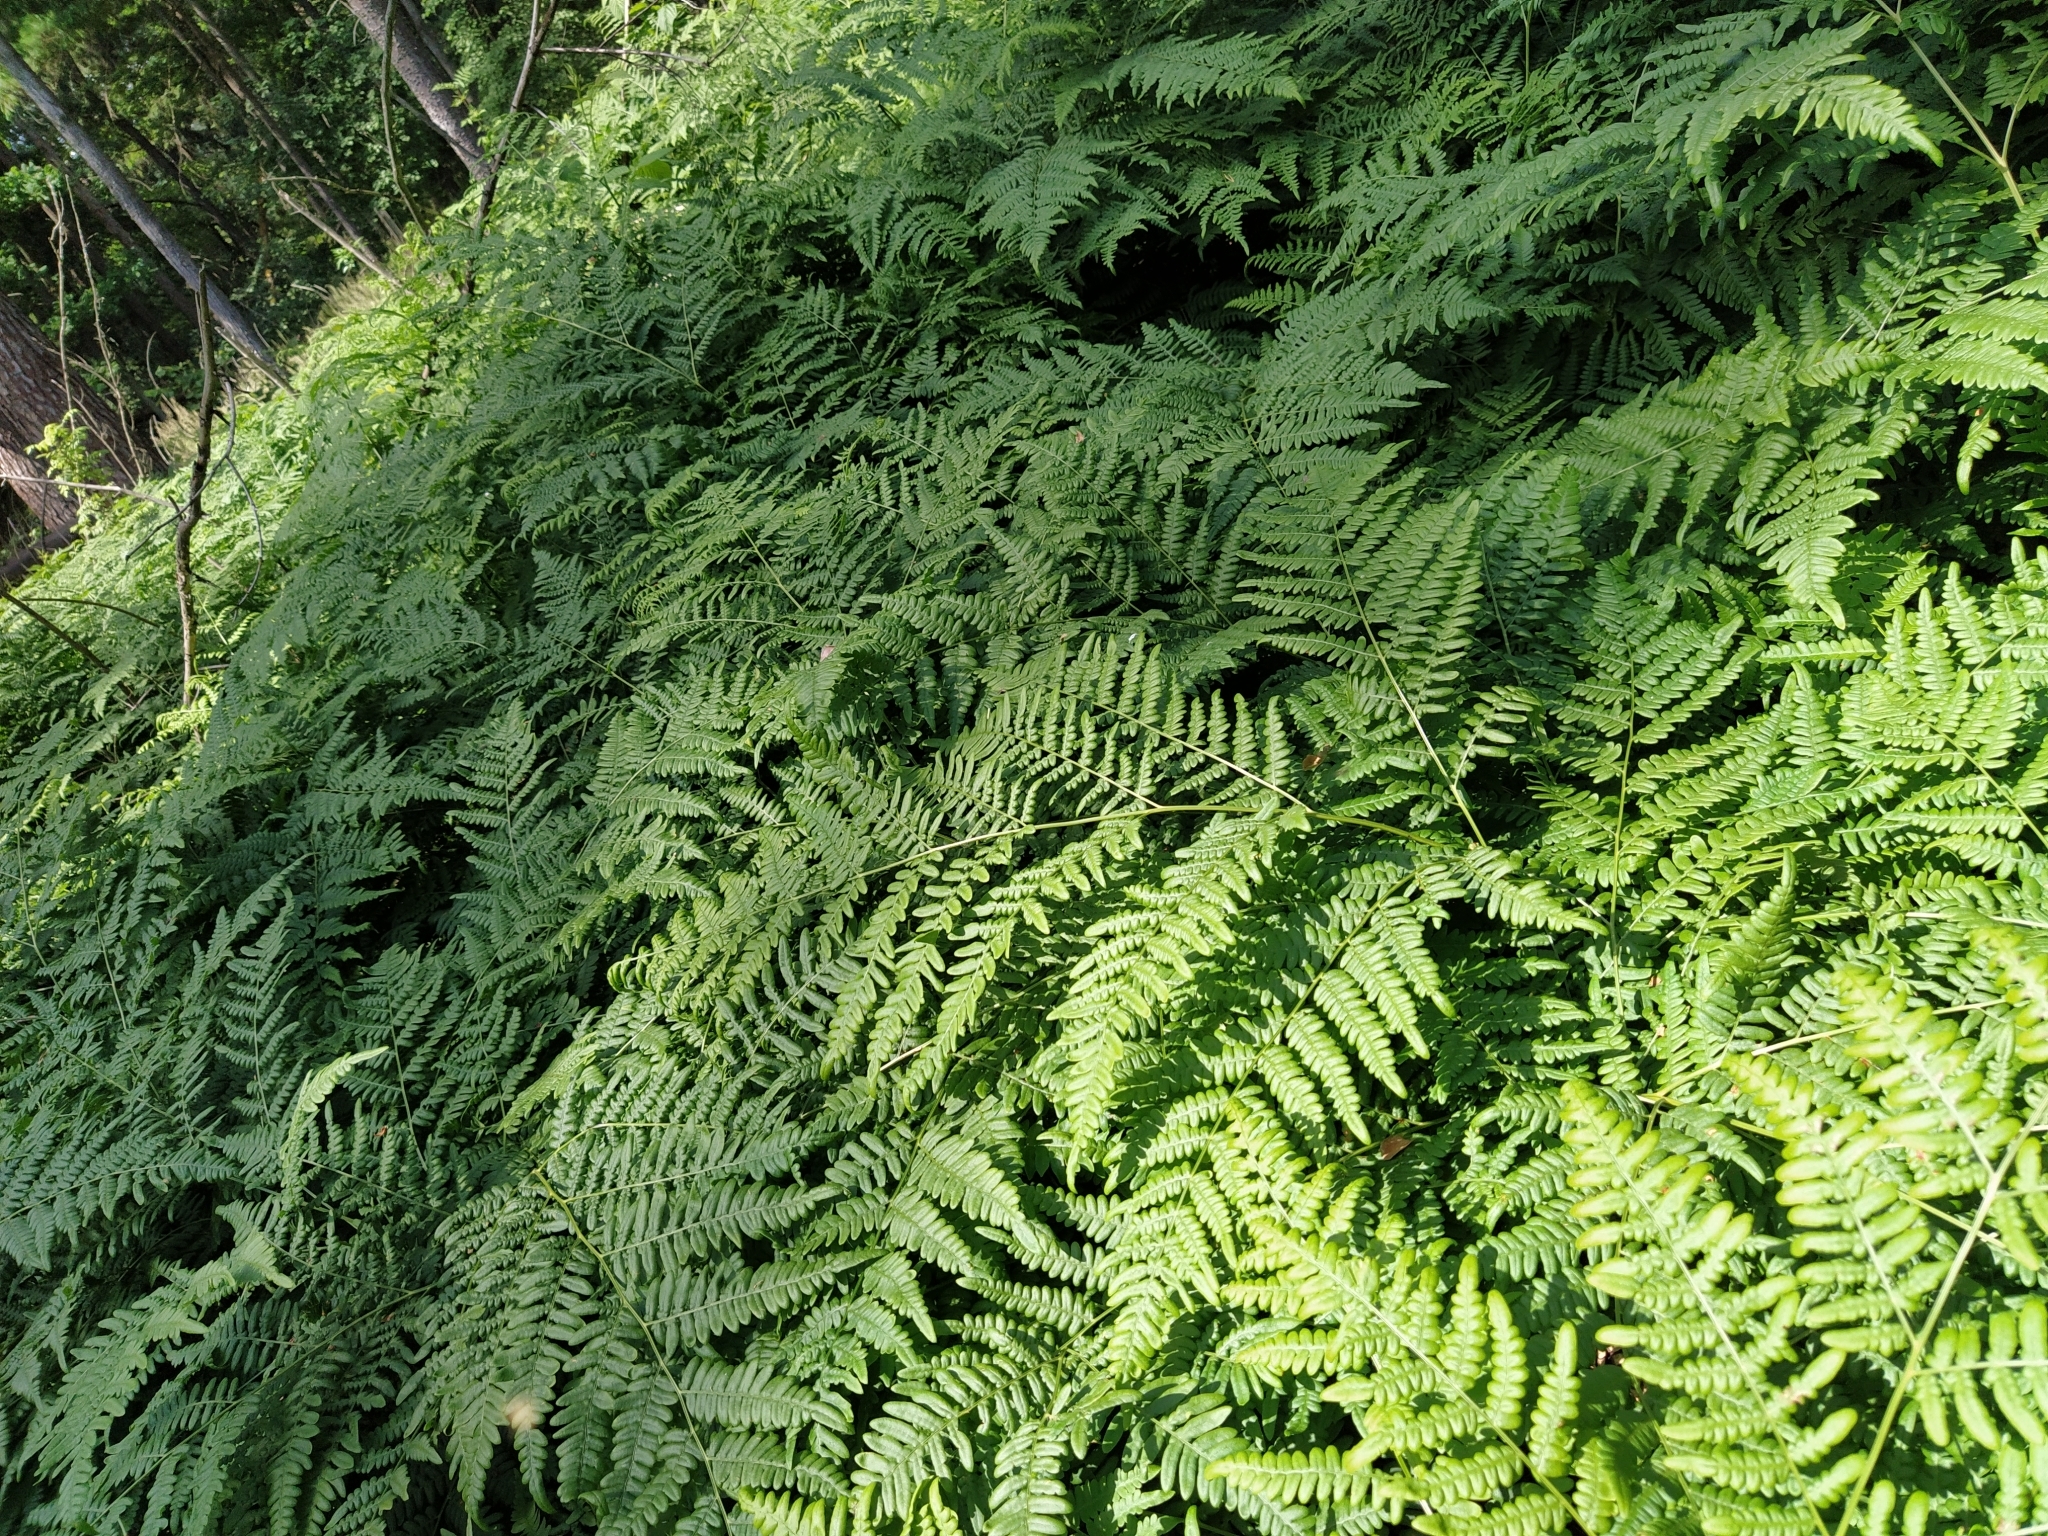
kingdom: Plantae
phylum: Tracheophyta
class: Polypodiopsida
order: Polypodiales
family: Dennstaedtiaceae
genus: Pteridium
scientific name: Pteridium aquilinum
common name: Bracken
